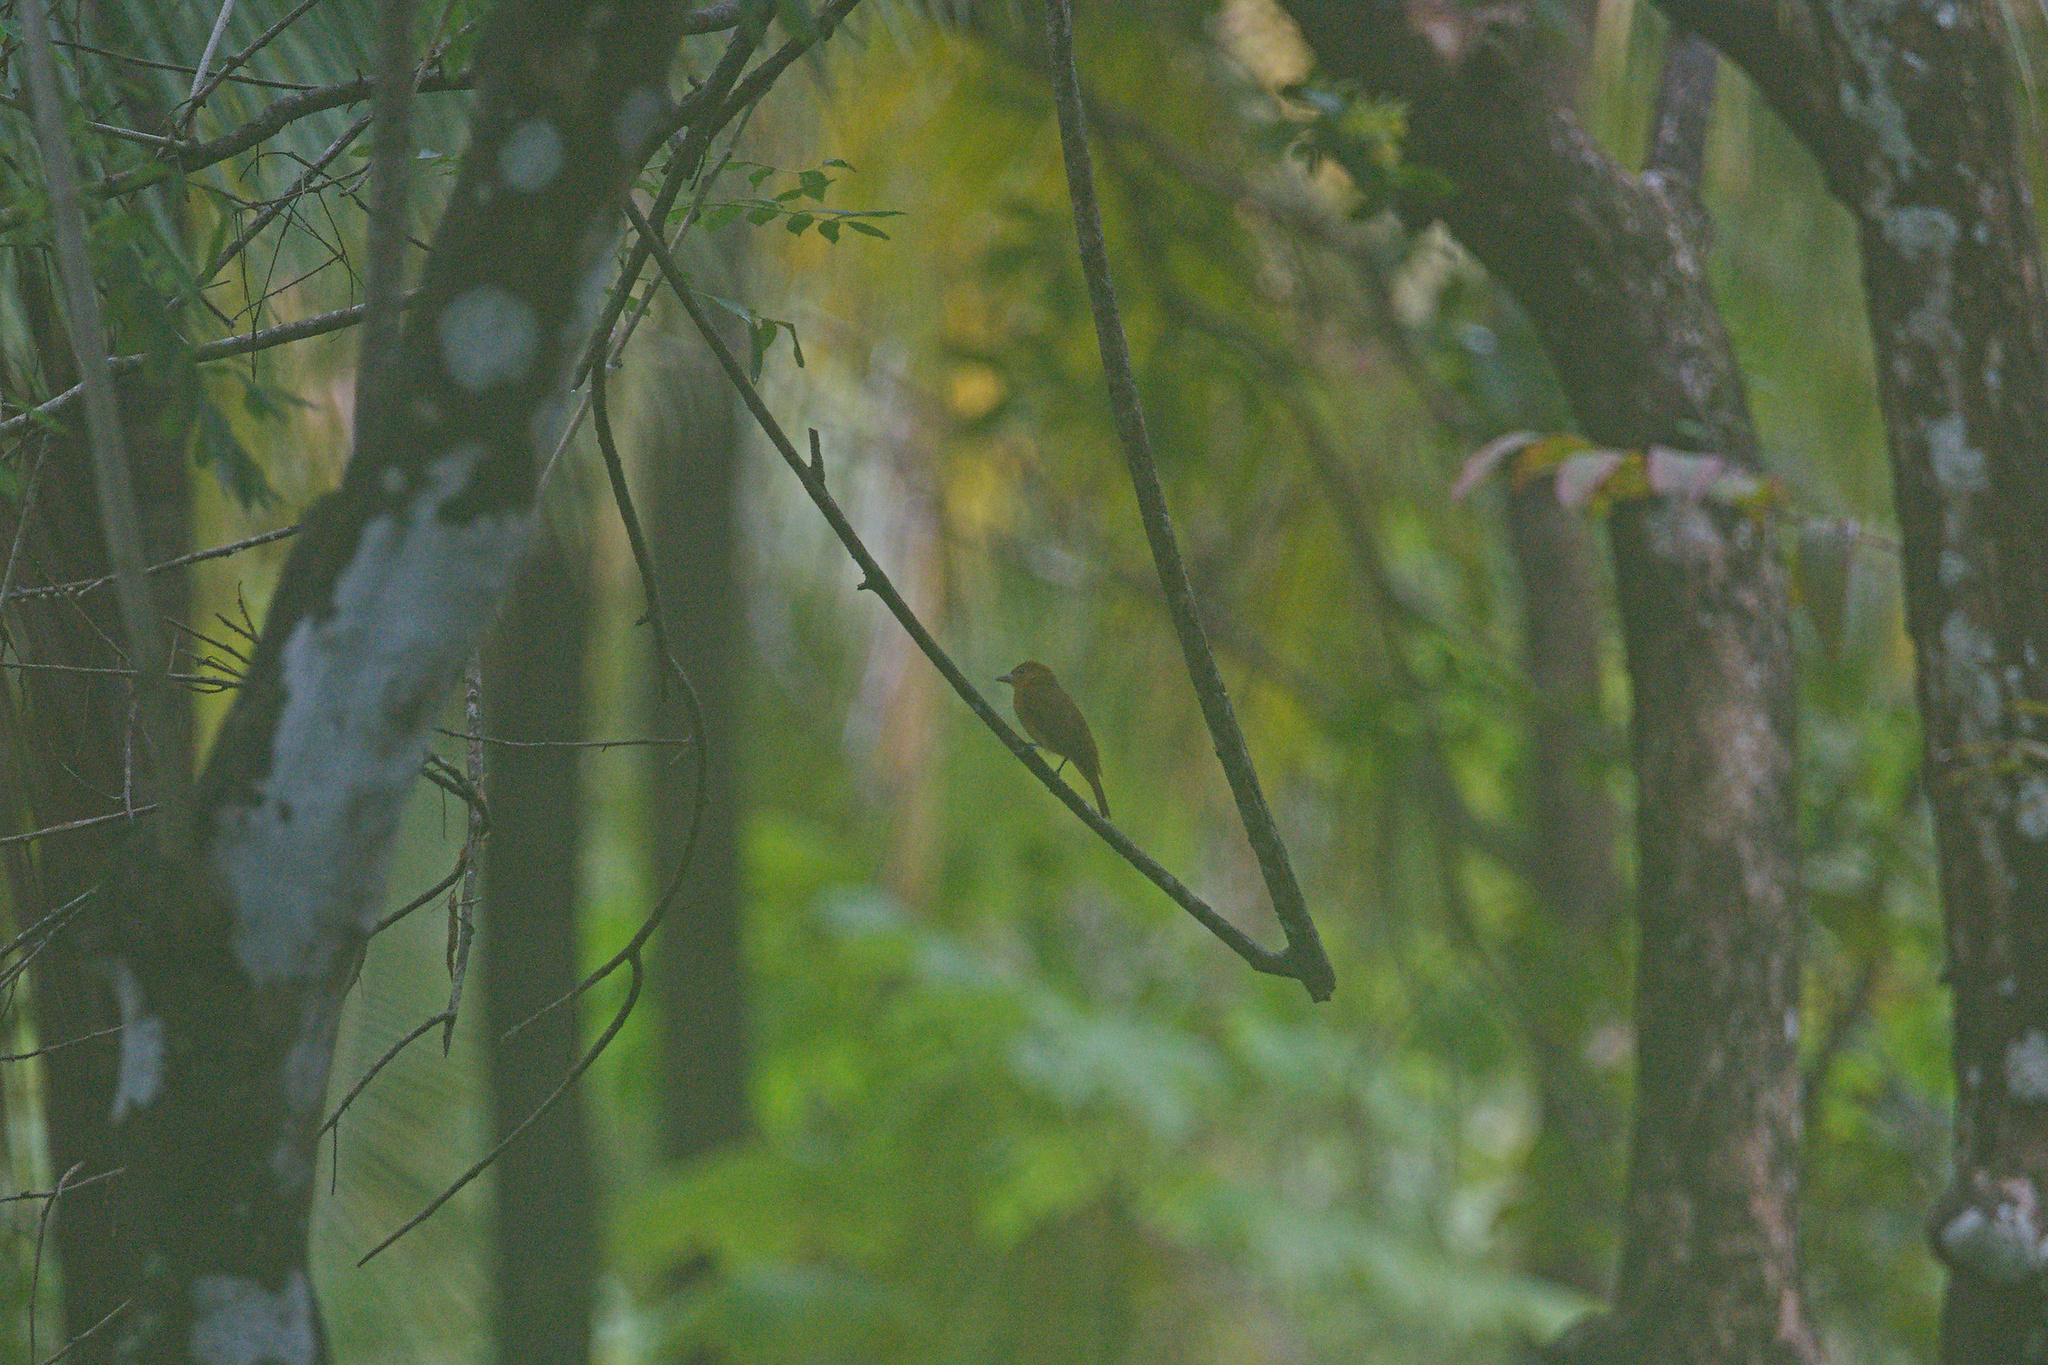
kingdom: Animalia
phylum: Chordata
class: Aves
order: Passeriformes
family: Cardinalidae
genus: Piranga
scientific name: Piranga rubra
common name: Summer tanager
